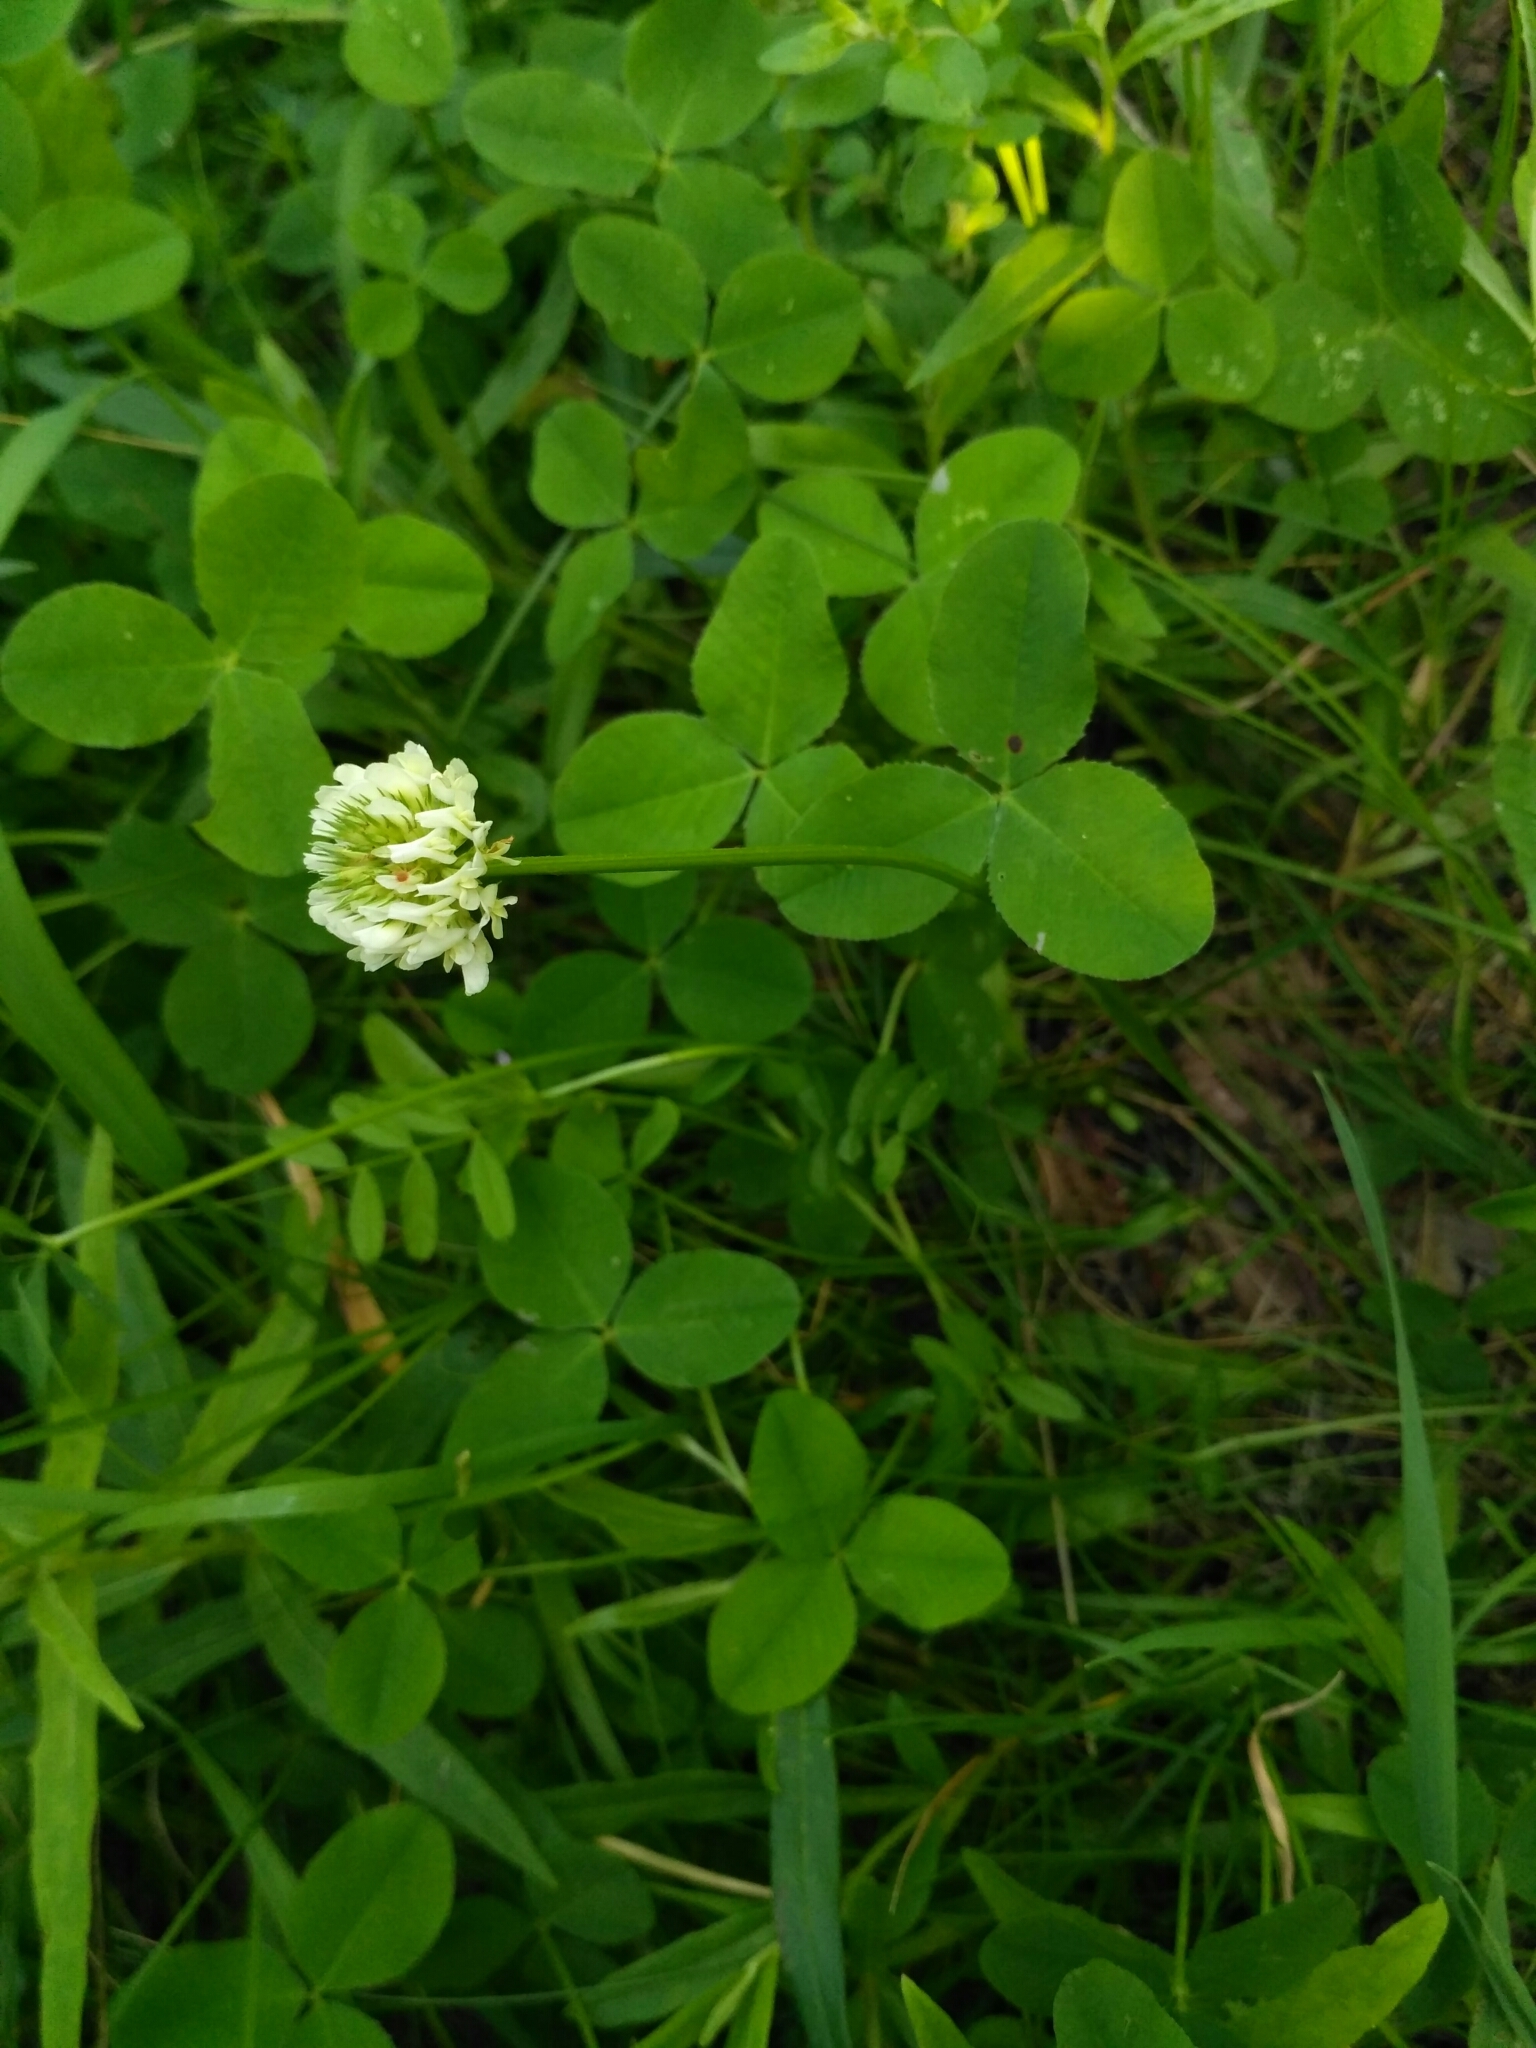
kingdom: Plantae
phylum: Tracheophyta
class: Magnoliopsida
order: Fabales
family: Fabaceae
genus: Trifolium
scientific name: Trifolium repens
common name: White clover
